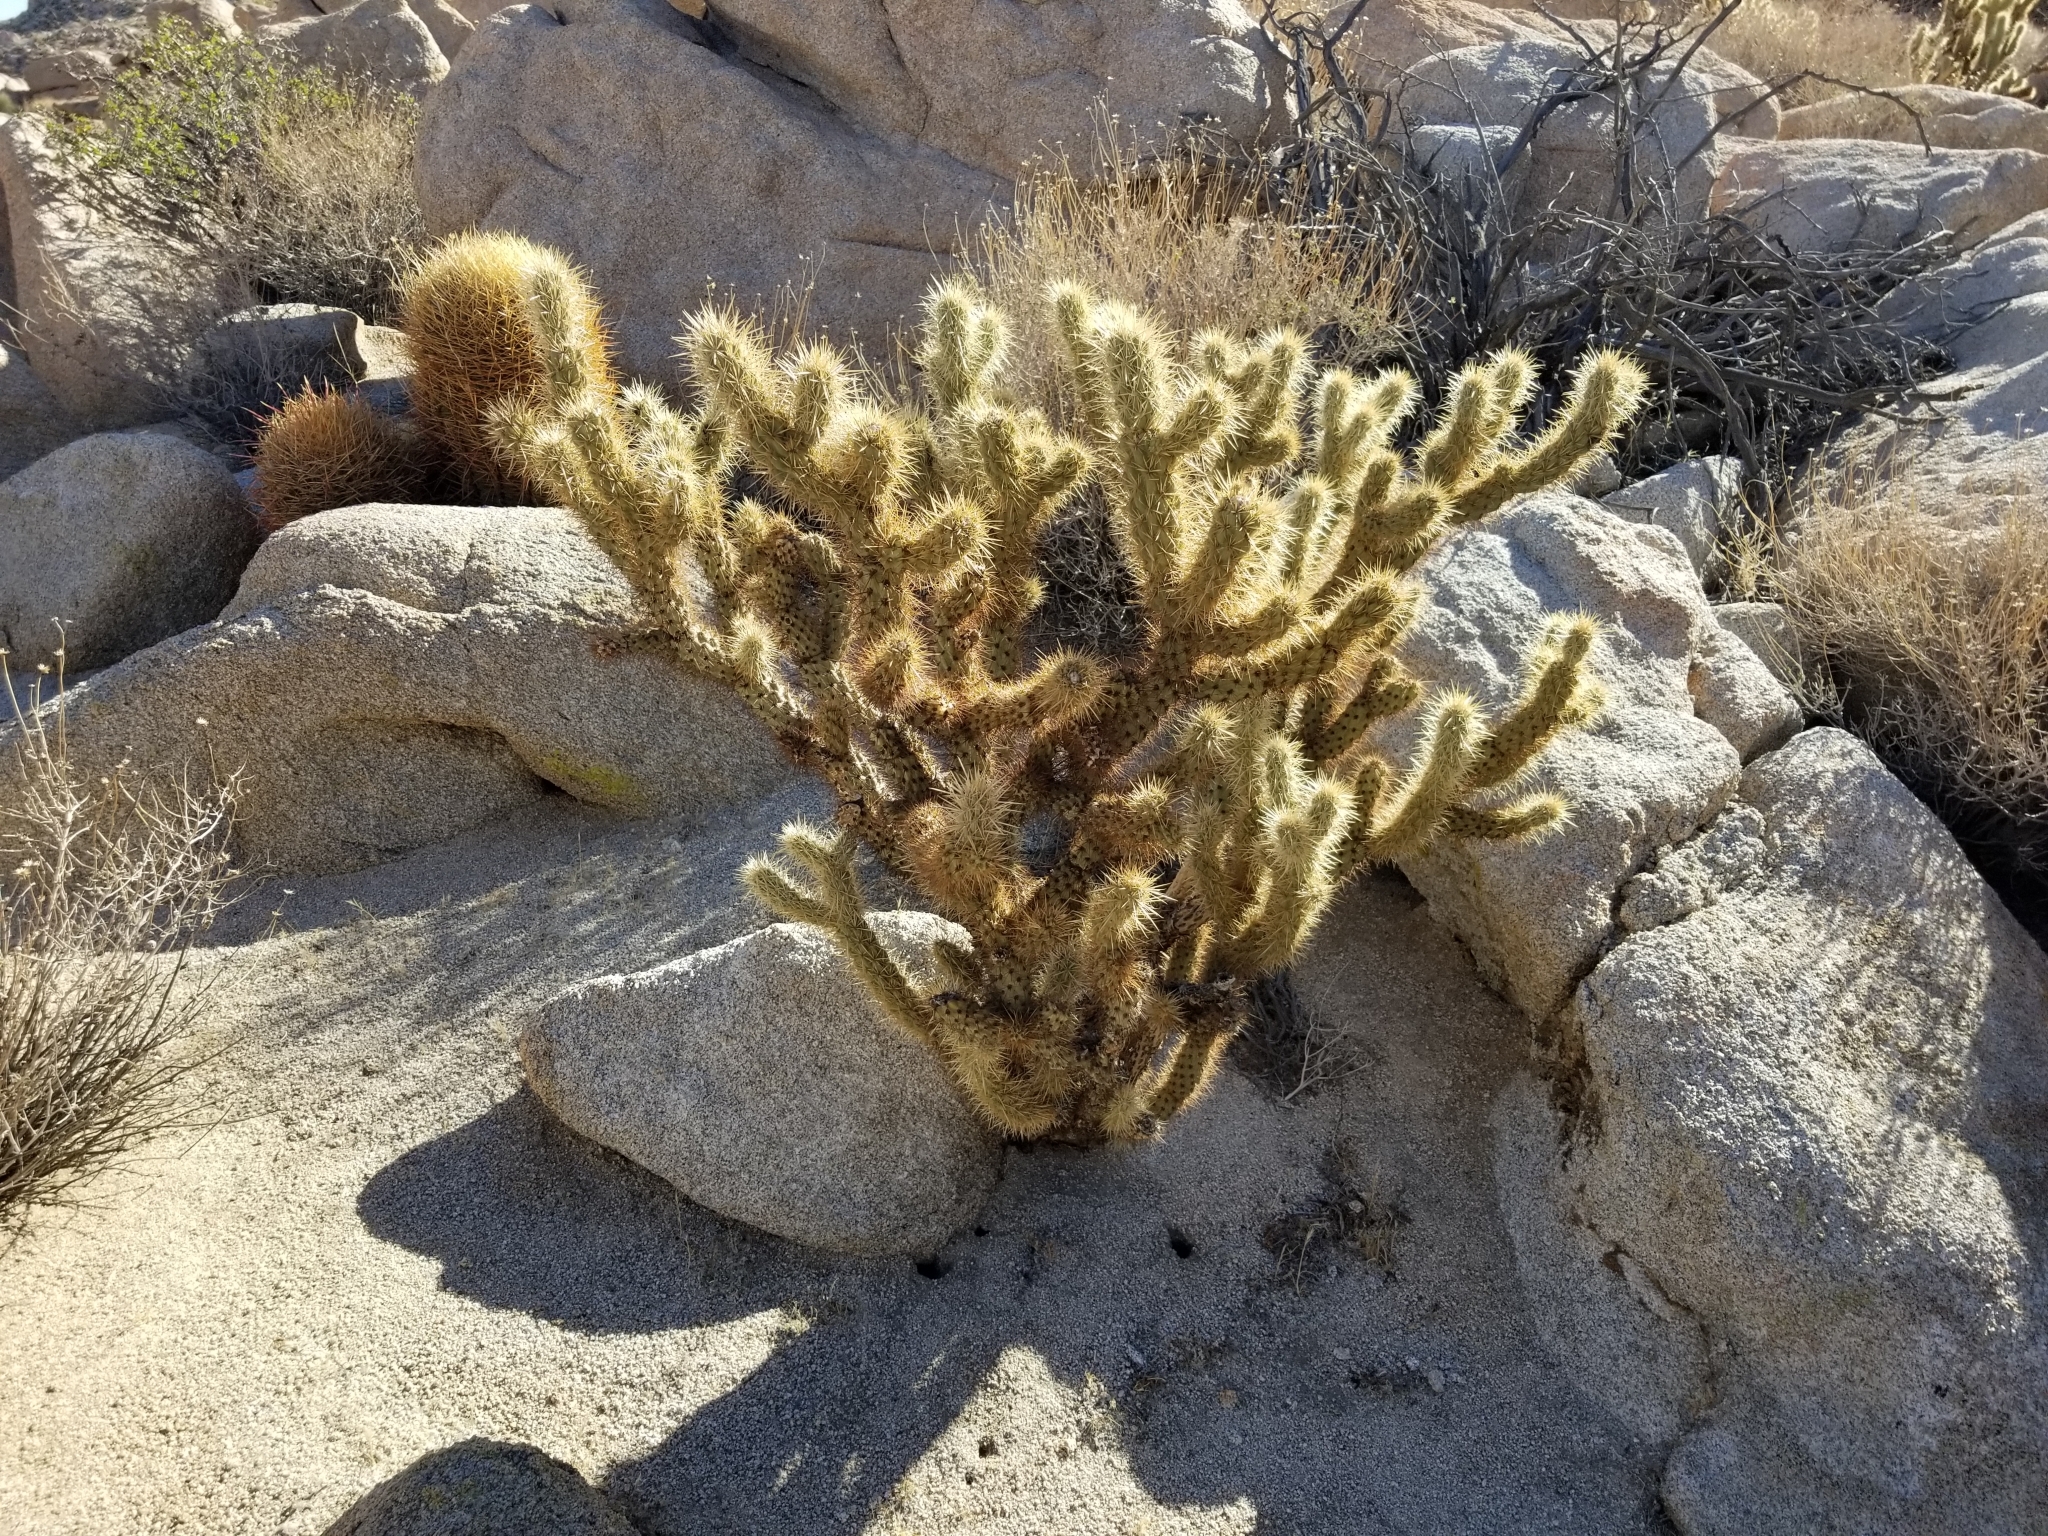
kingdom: Plantae
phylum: Tracheophyta
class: Magnoliopsida
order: Caryophyllales
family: Cactaceae
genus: Cylindropuntia
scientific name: Cylindropuntia wolfii
